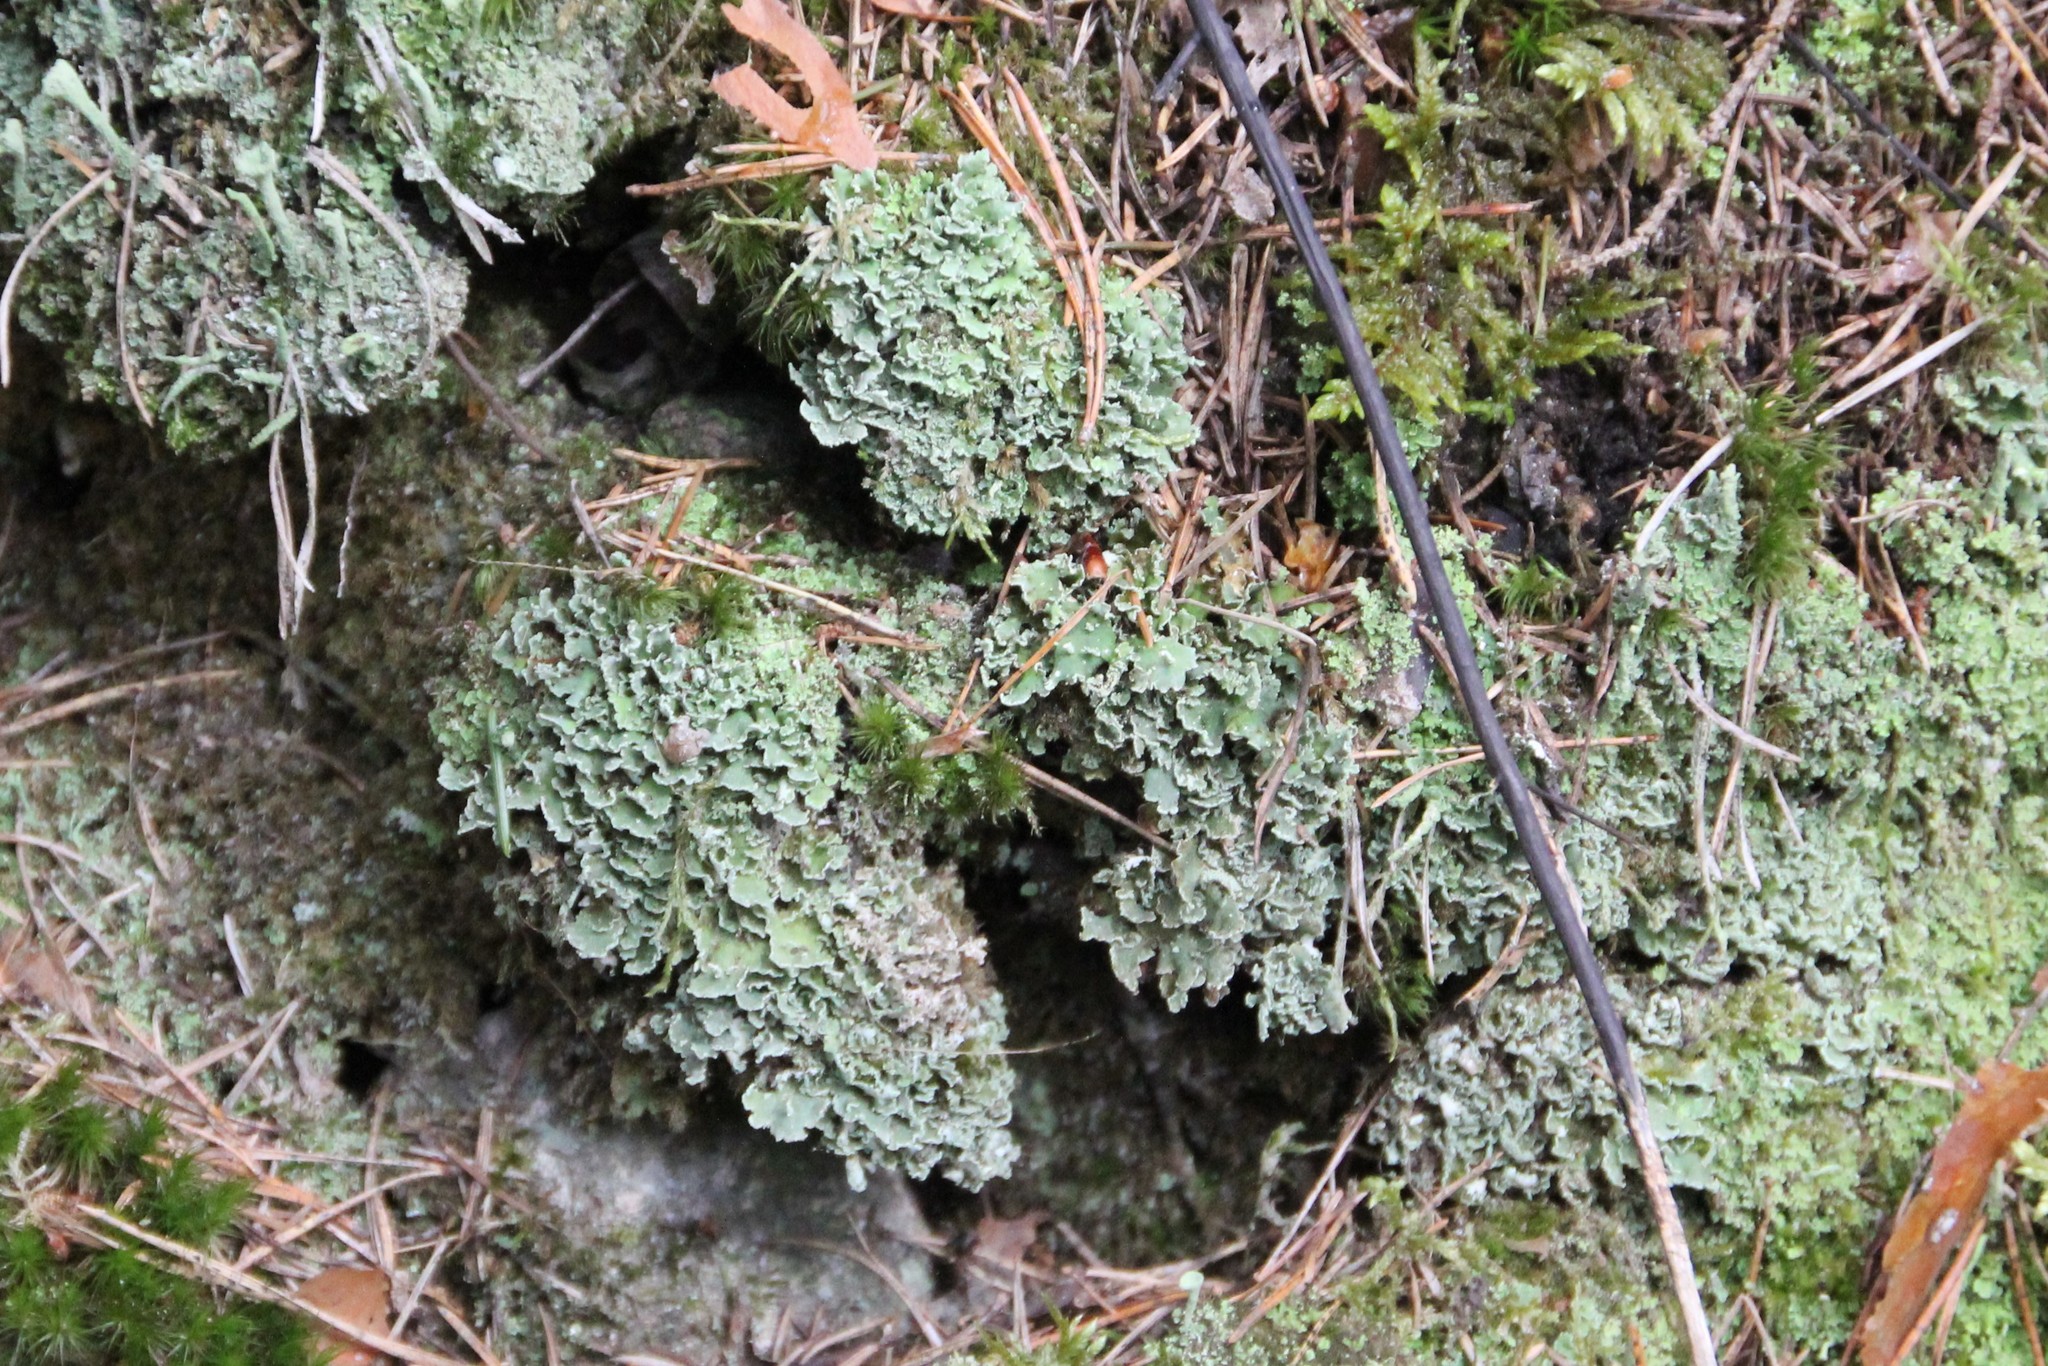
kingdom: Fungi
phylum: Ascomycota
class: Lecanoromycetes
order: Lecanorales
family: Cladoniaceae
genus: Cladonia
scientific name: Cladonia digitata
